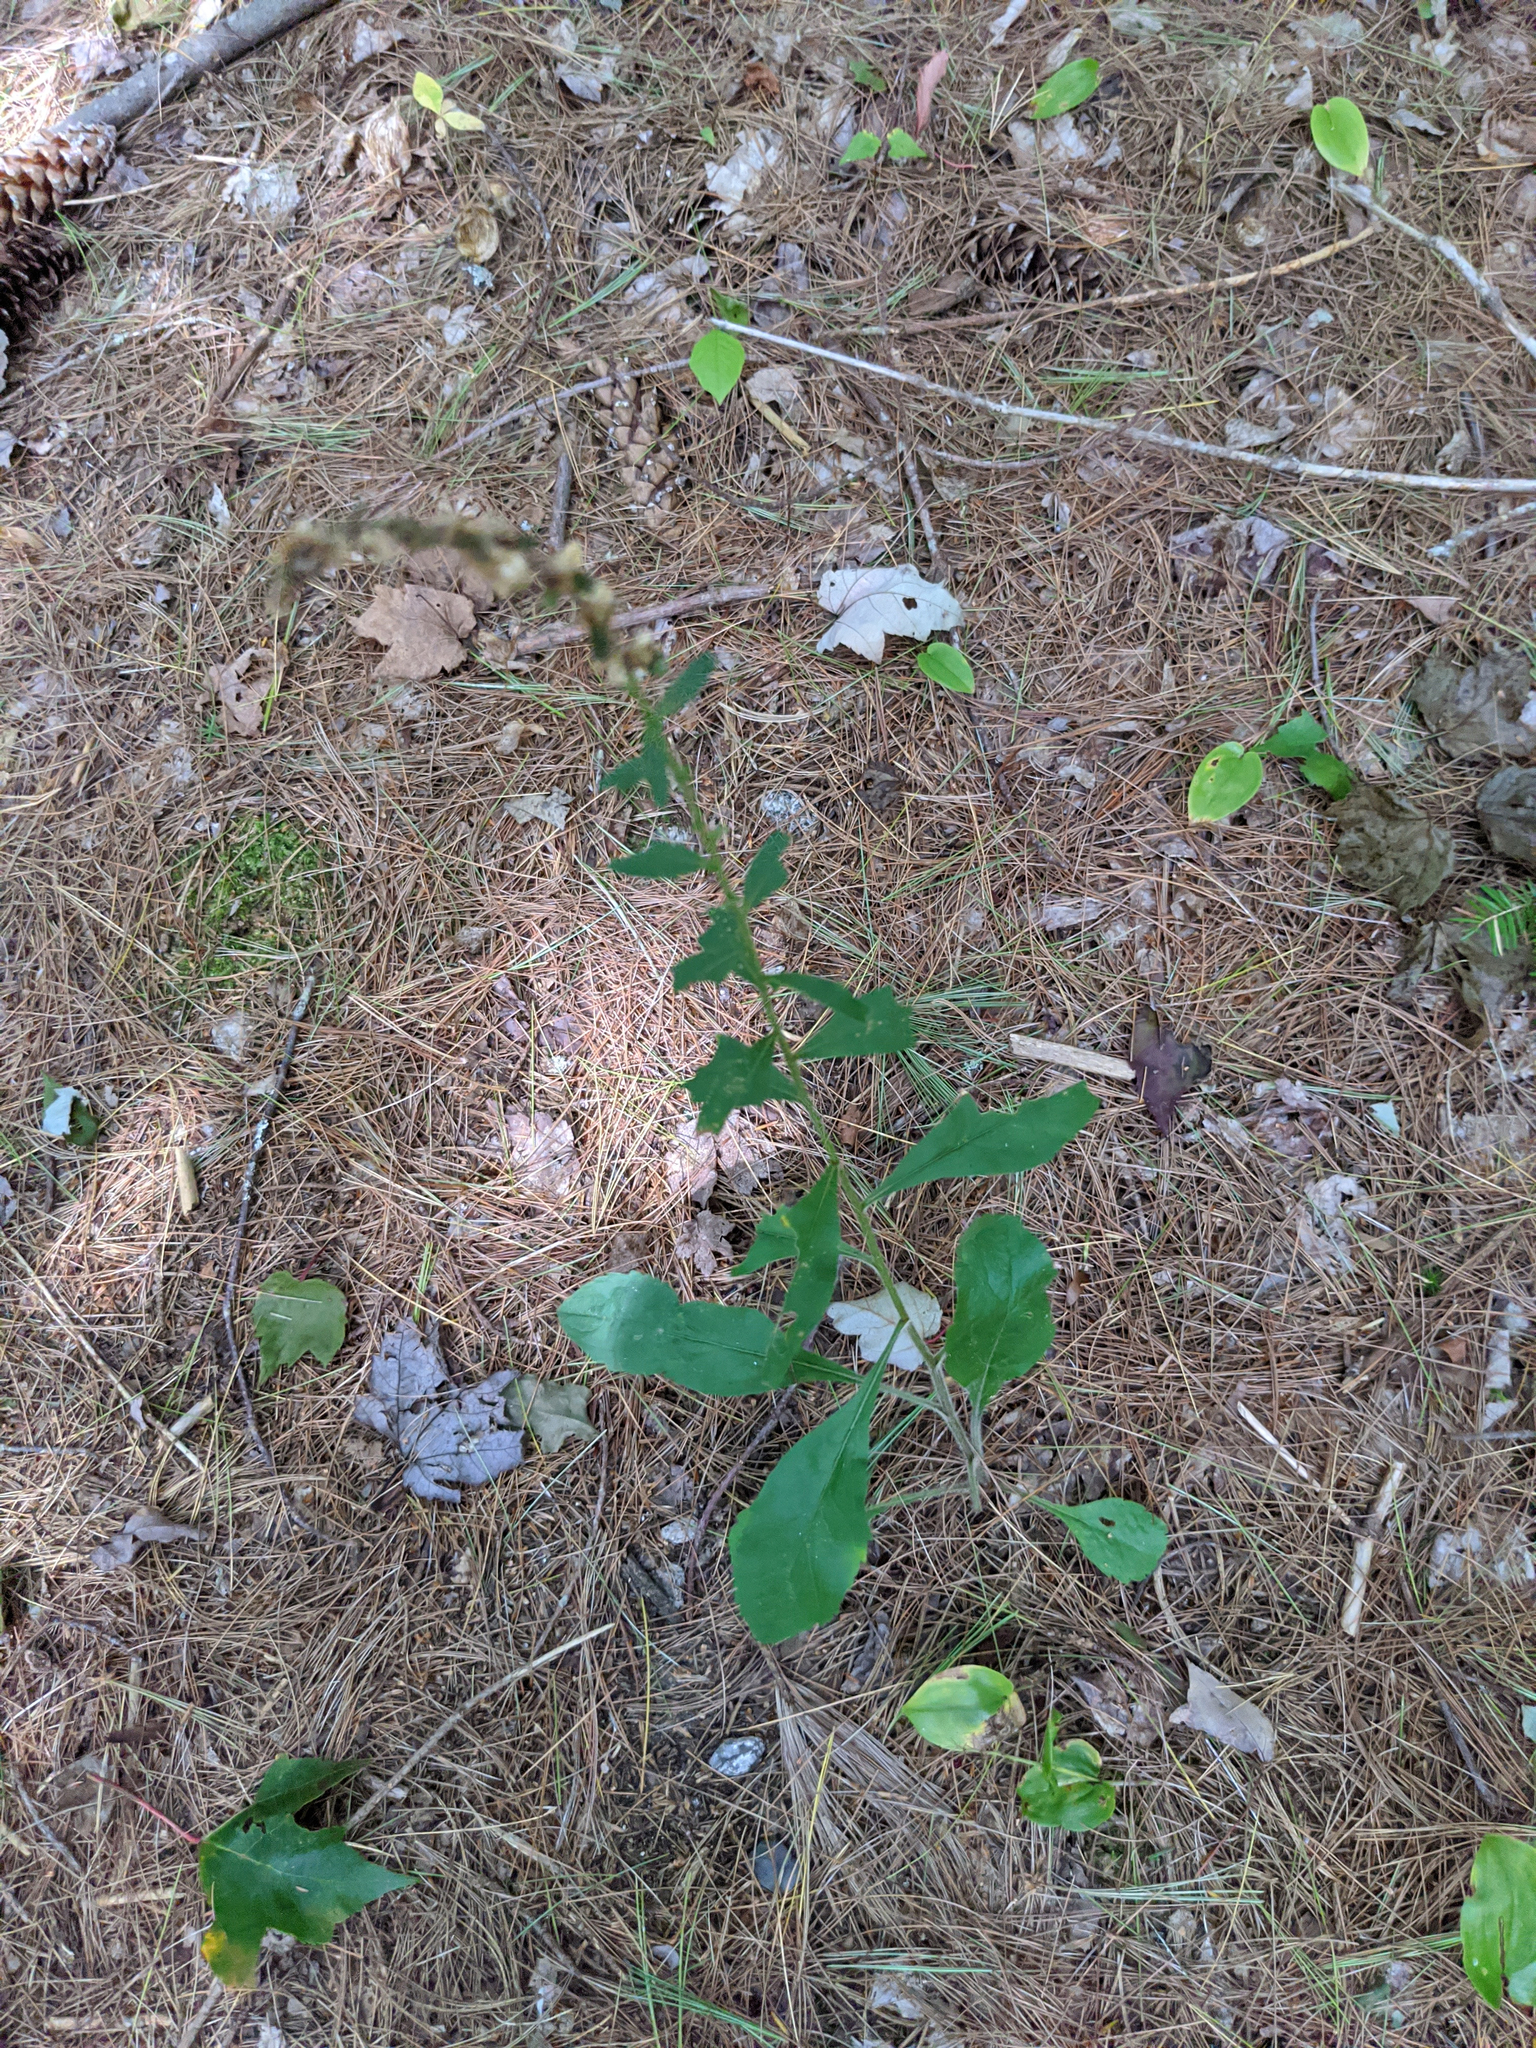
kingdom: Plantae
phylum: Tracheophyta
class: Magnoliopsida
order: Asterales
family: Asteraceae
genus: Solidago
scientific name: Solidago bicolor
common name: Silverrod
